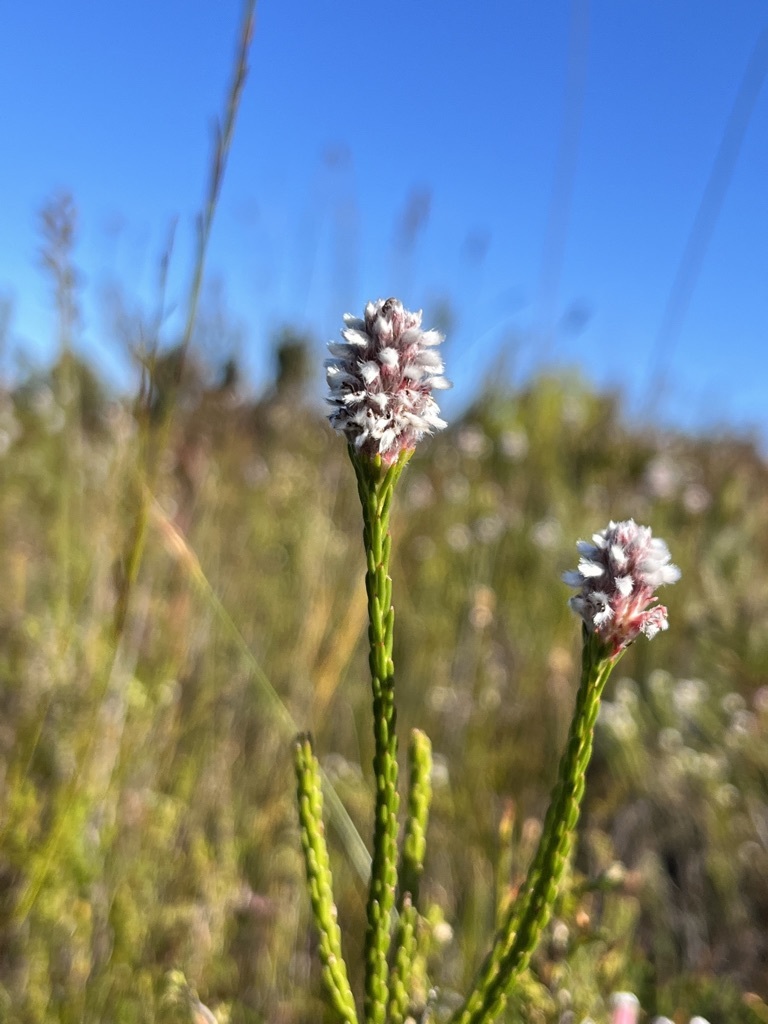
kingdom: Plantae
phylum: Tracheophyta
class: Magnoliopsida
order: Proteales
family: Proteaceae
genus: Spatalla
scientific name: Spatalla ericoides
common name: Erica-leaf spoon
